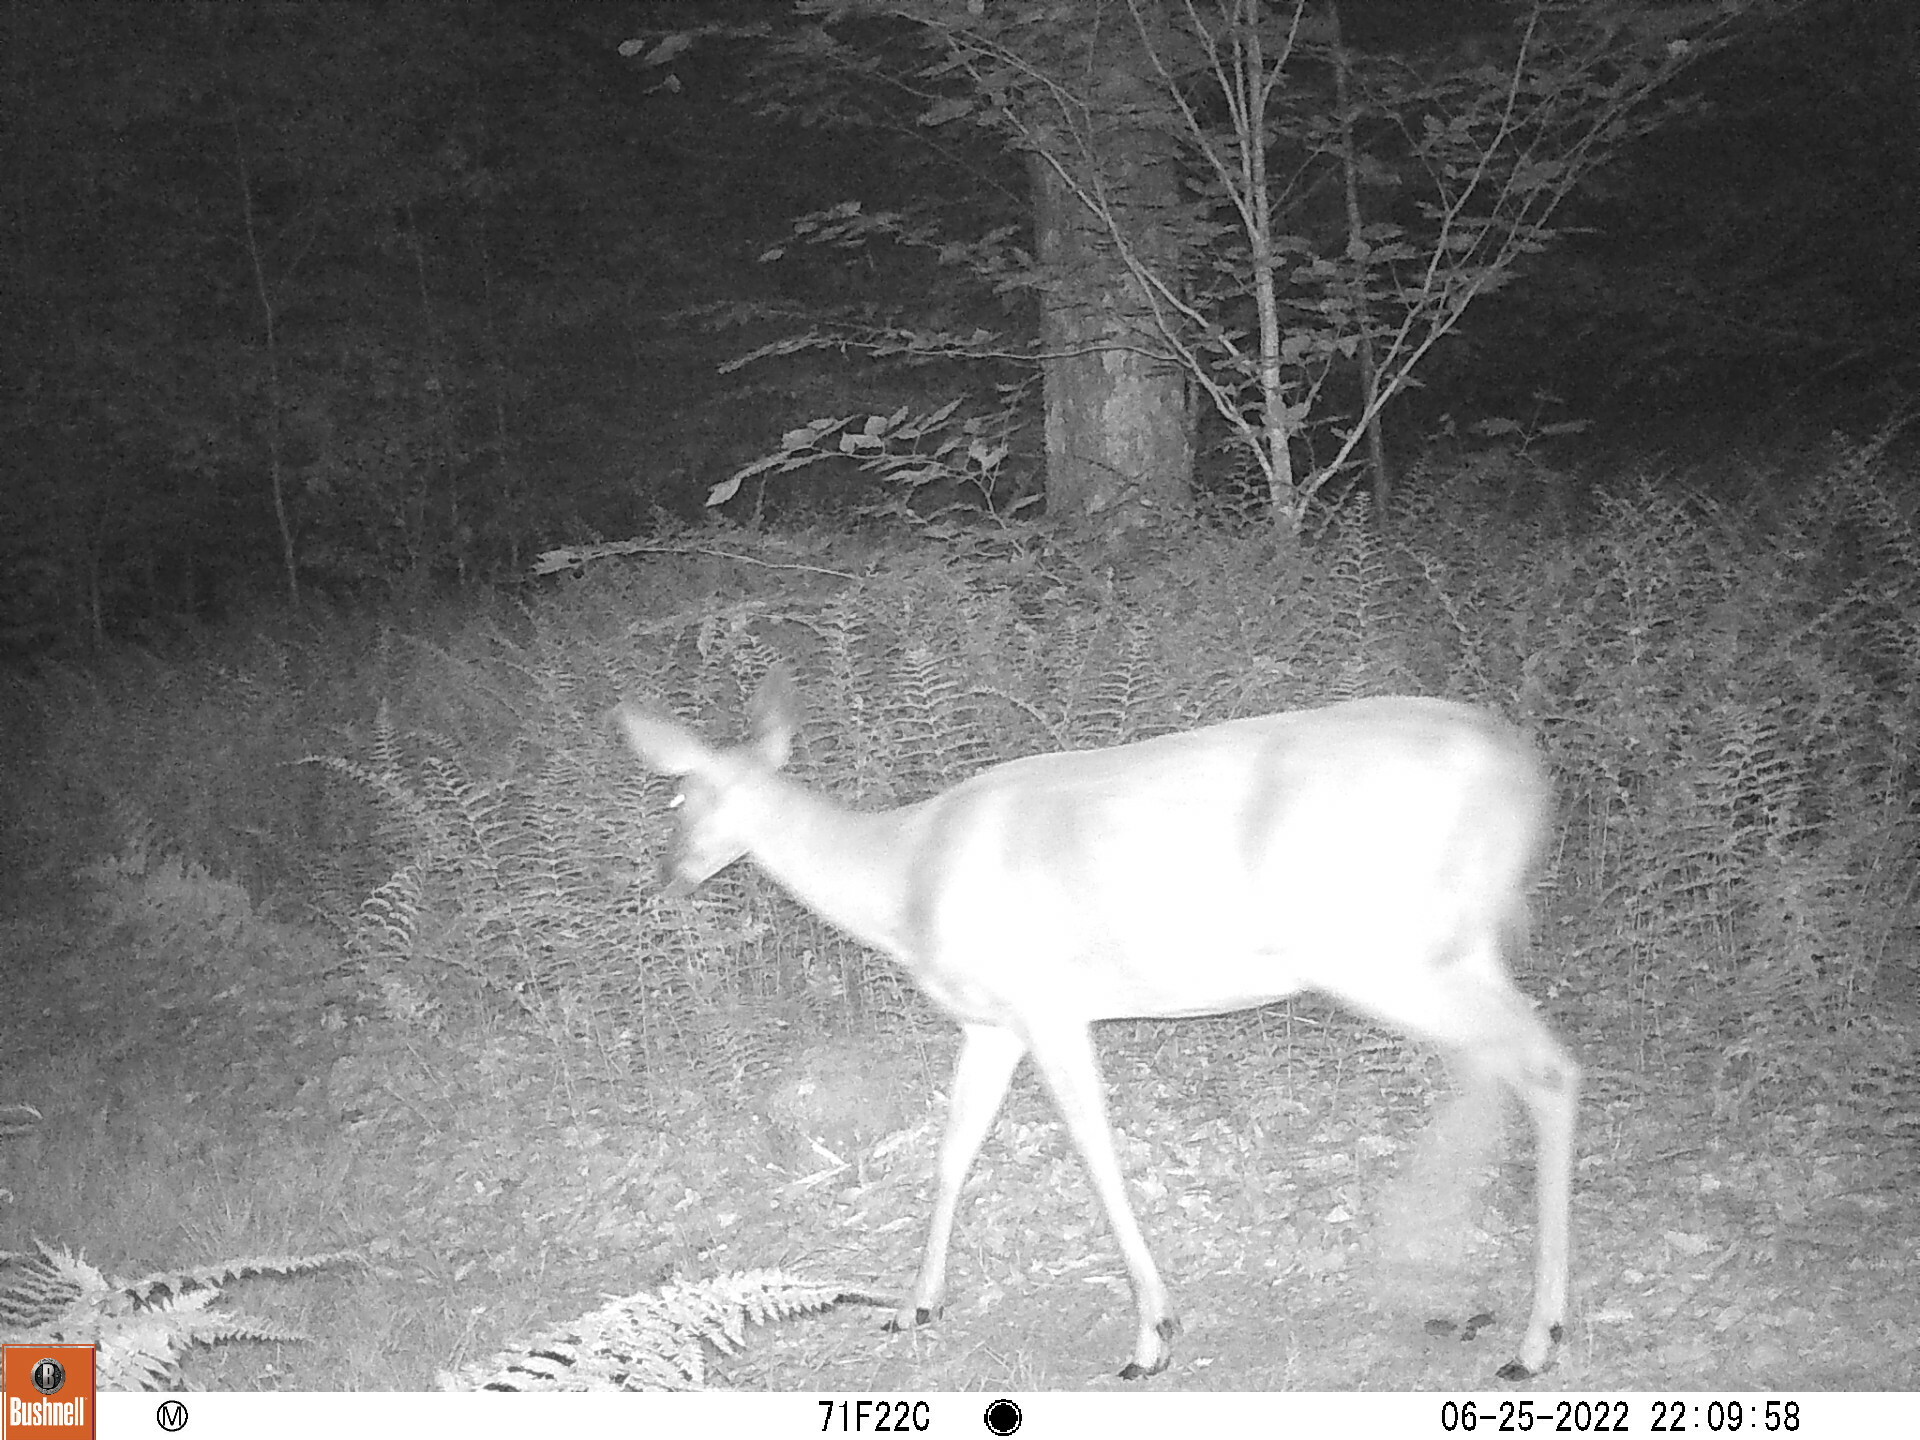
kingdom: Animalia
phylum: Chordata
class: Mammalia
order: Artiodactyla
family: Cervidae
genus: Odocoileus
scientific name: Odocoileus virginianus
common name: White-tailed deer
